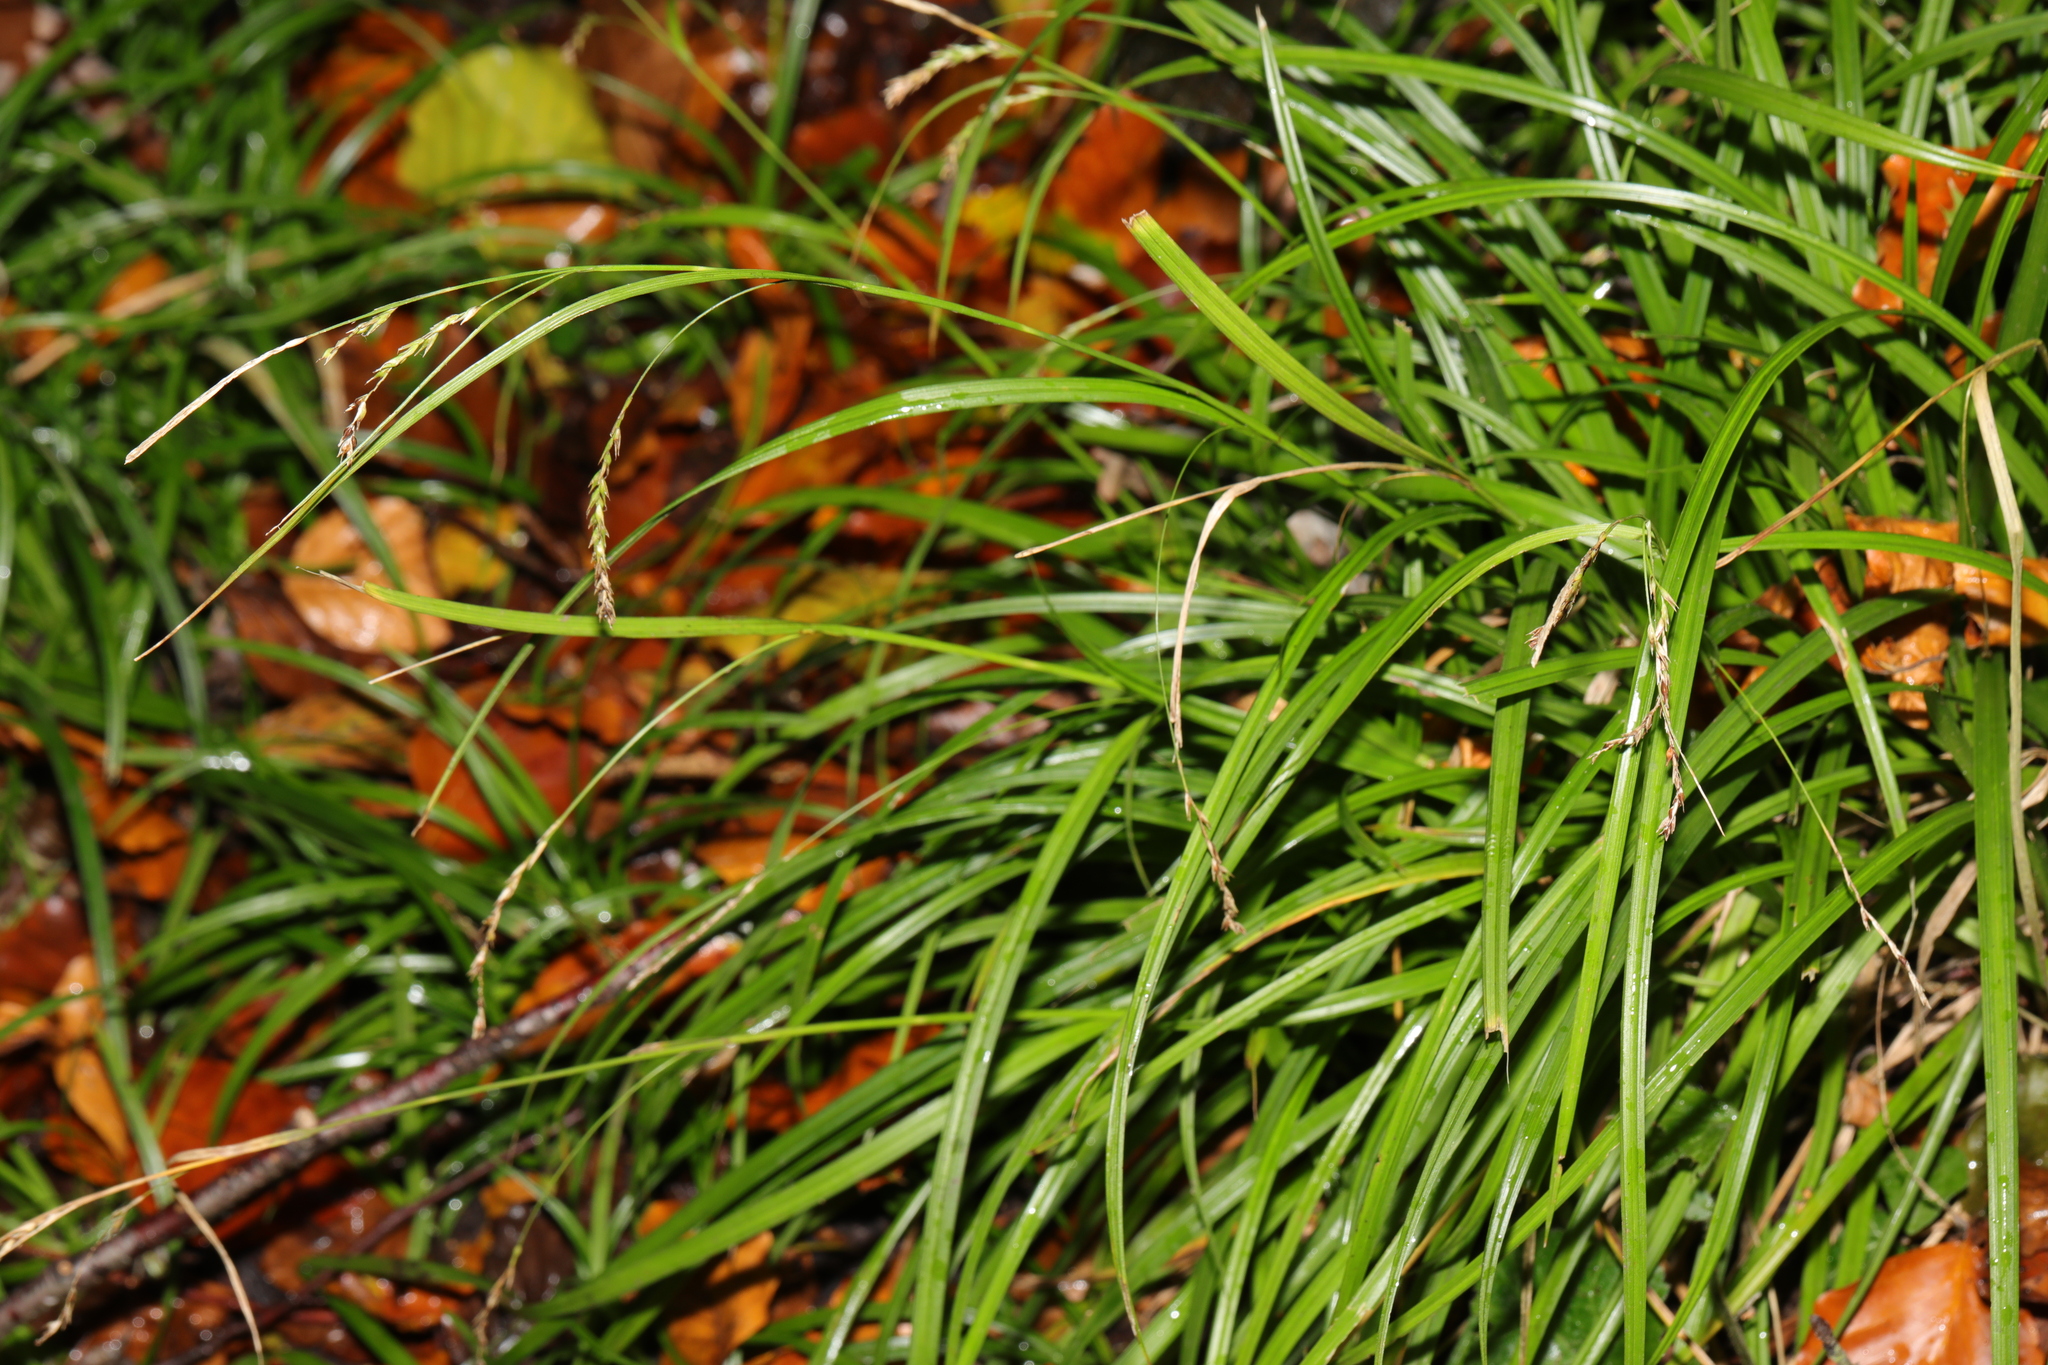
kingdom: Plantae
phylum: Tracheophyta
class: Liliopsida
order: Poales
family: Cyperaceae
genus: Carex
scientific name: Carex sylvatica
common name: Wood-sedge
